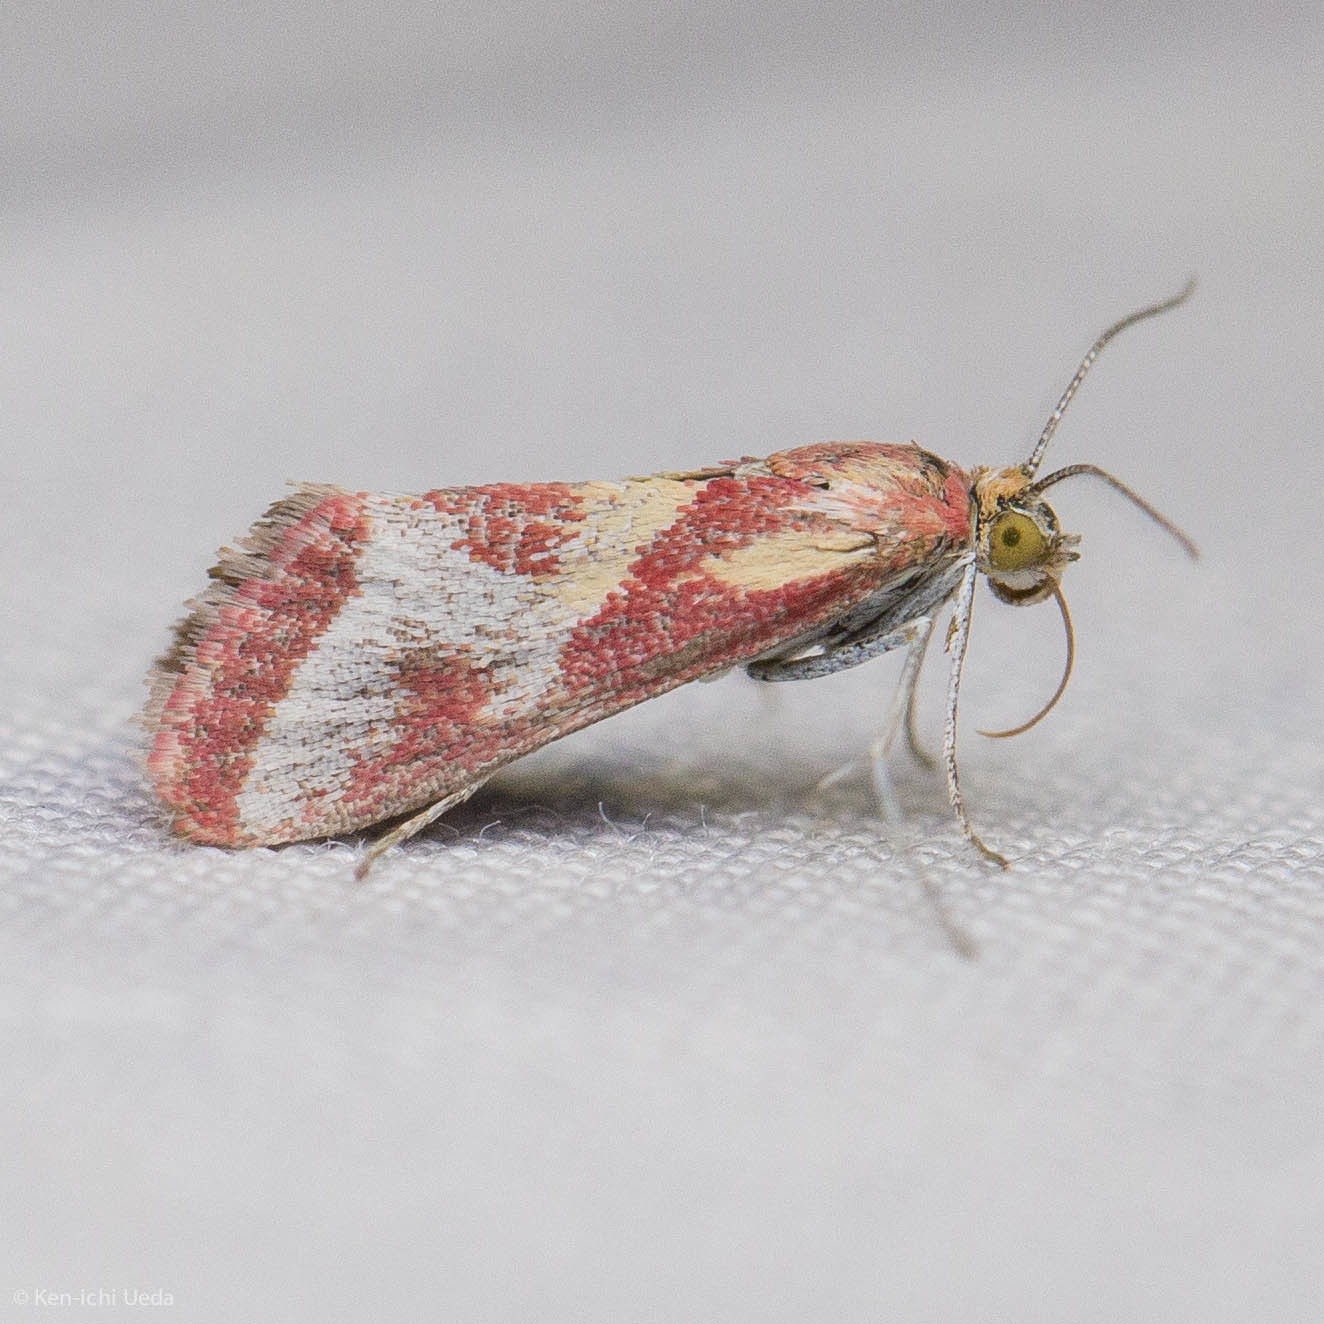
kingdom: Animalia
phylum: Arthropoda
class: Insecta
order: Lepidoptera
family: Crambidae
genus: Noctueliopsis
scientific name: Noctueliopsis aridalis
